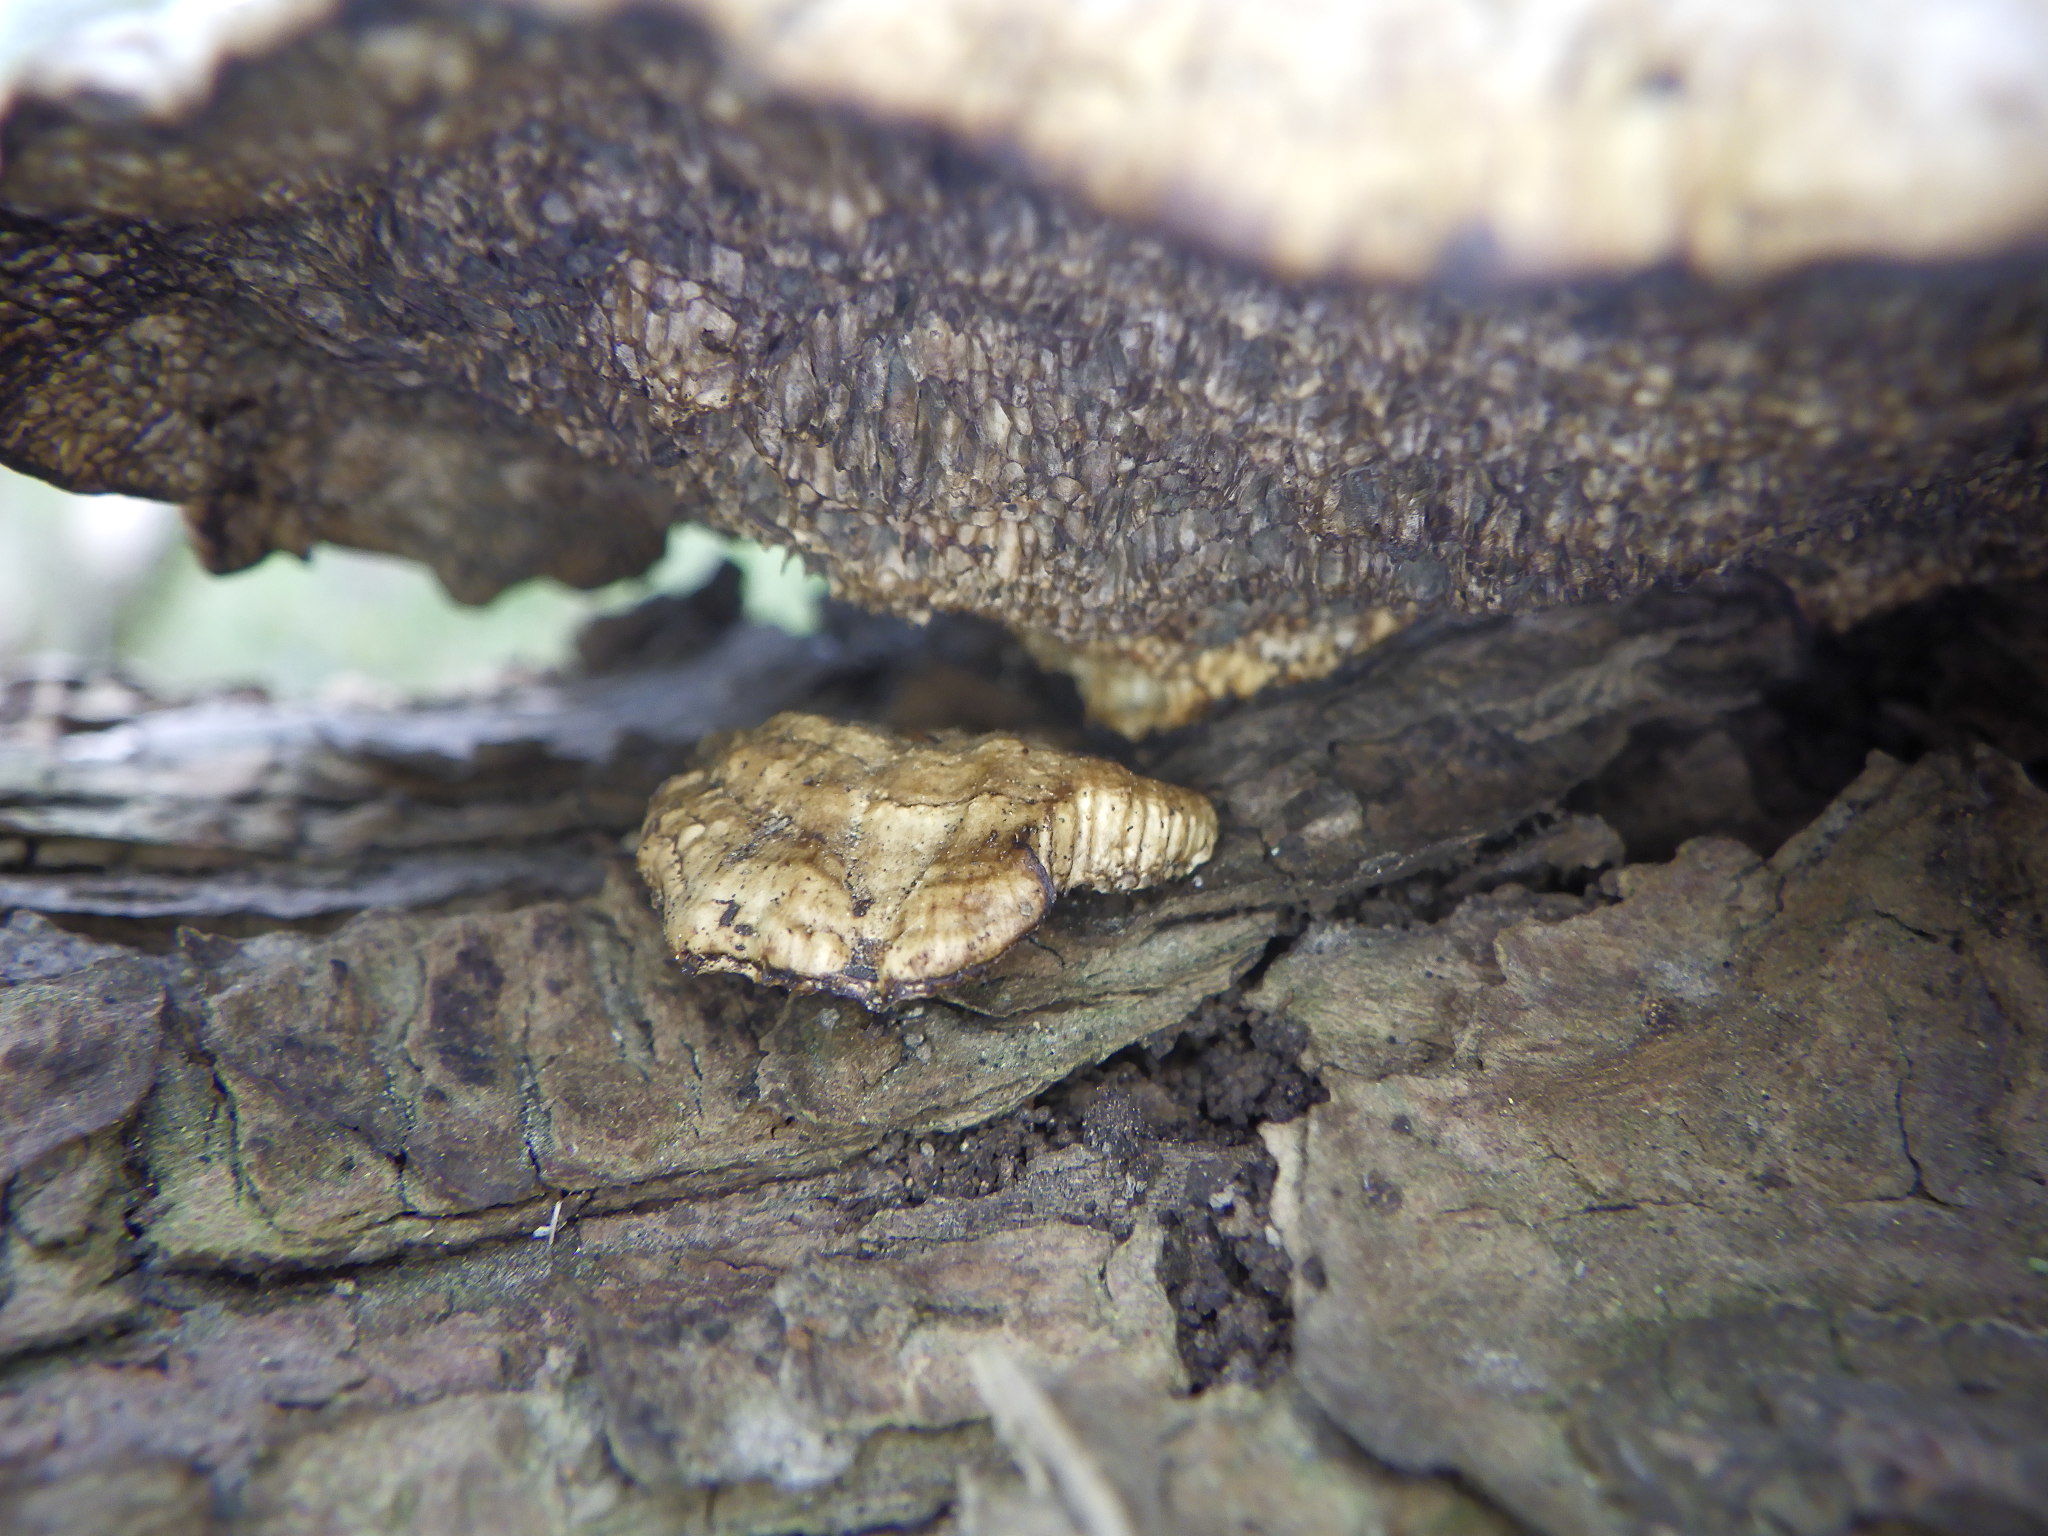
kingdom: Fungi
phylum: Basidiomycota
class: Agaricomycetes
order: Polyporales
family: Polyporaceae
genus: Daedaleopsis
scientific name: Daedaleopsis confragosa
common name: Blushing bracket
